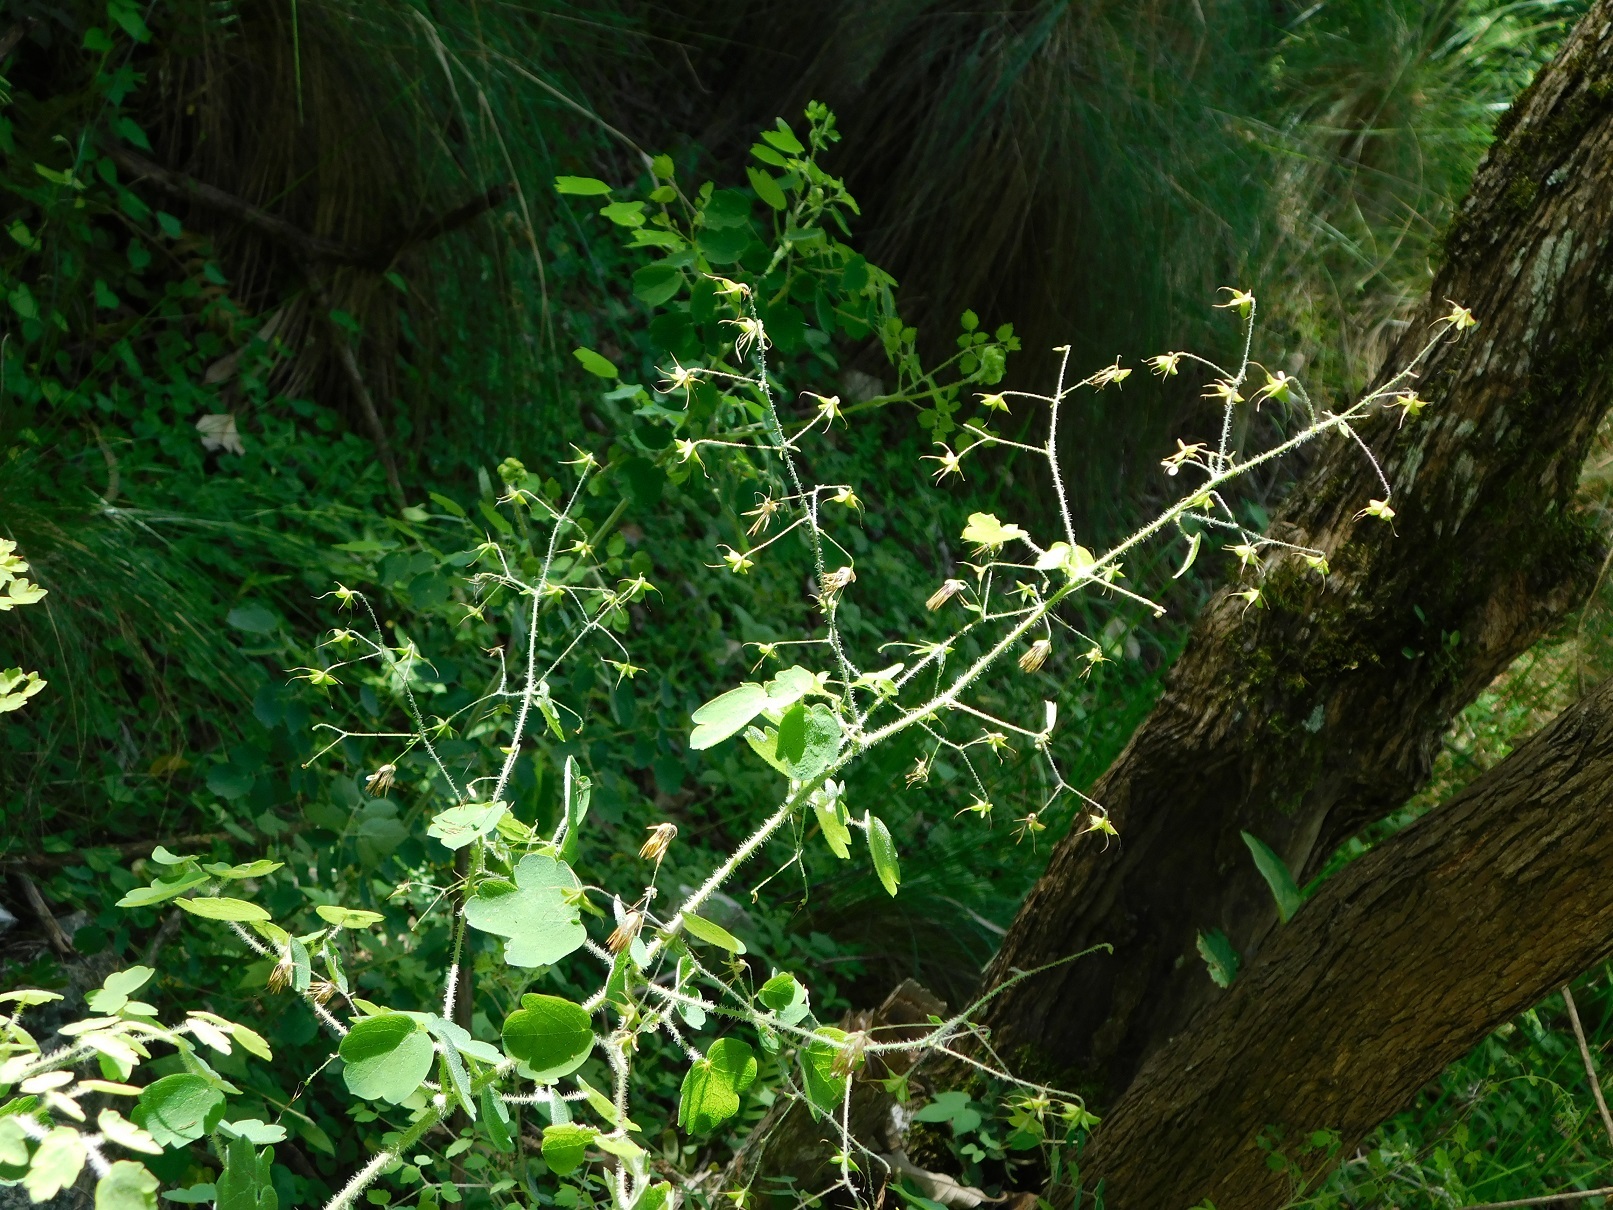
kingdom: Plantae
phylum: Tracheophyta
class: Magnoliopsida
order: Ranunculales
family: Ranunculaceae
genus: Thalictrum
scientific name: Thalictrum guatemalense
